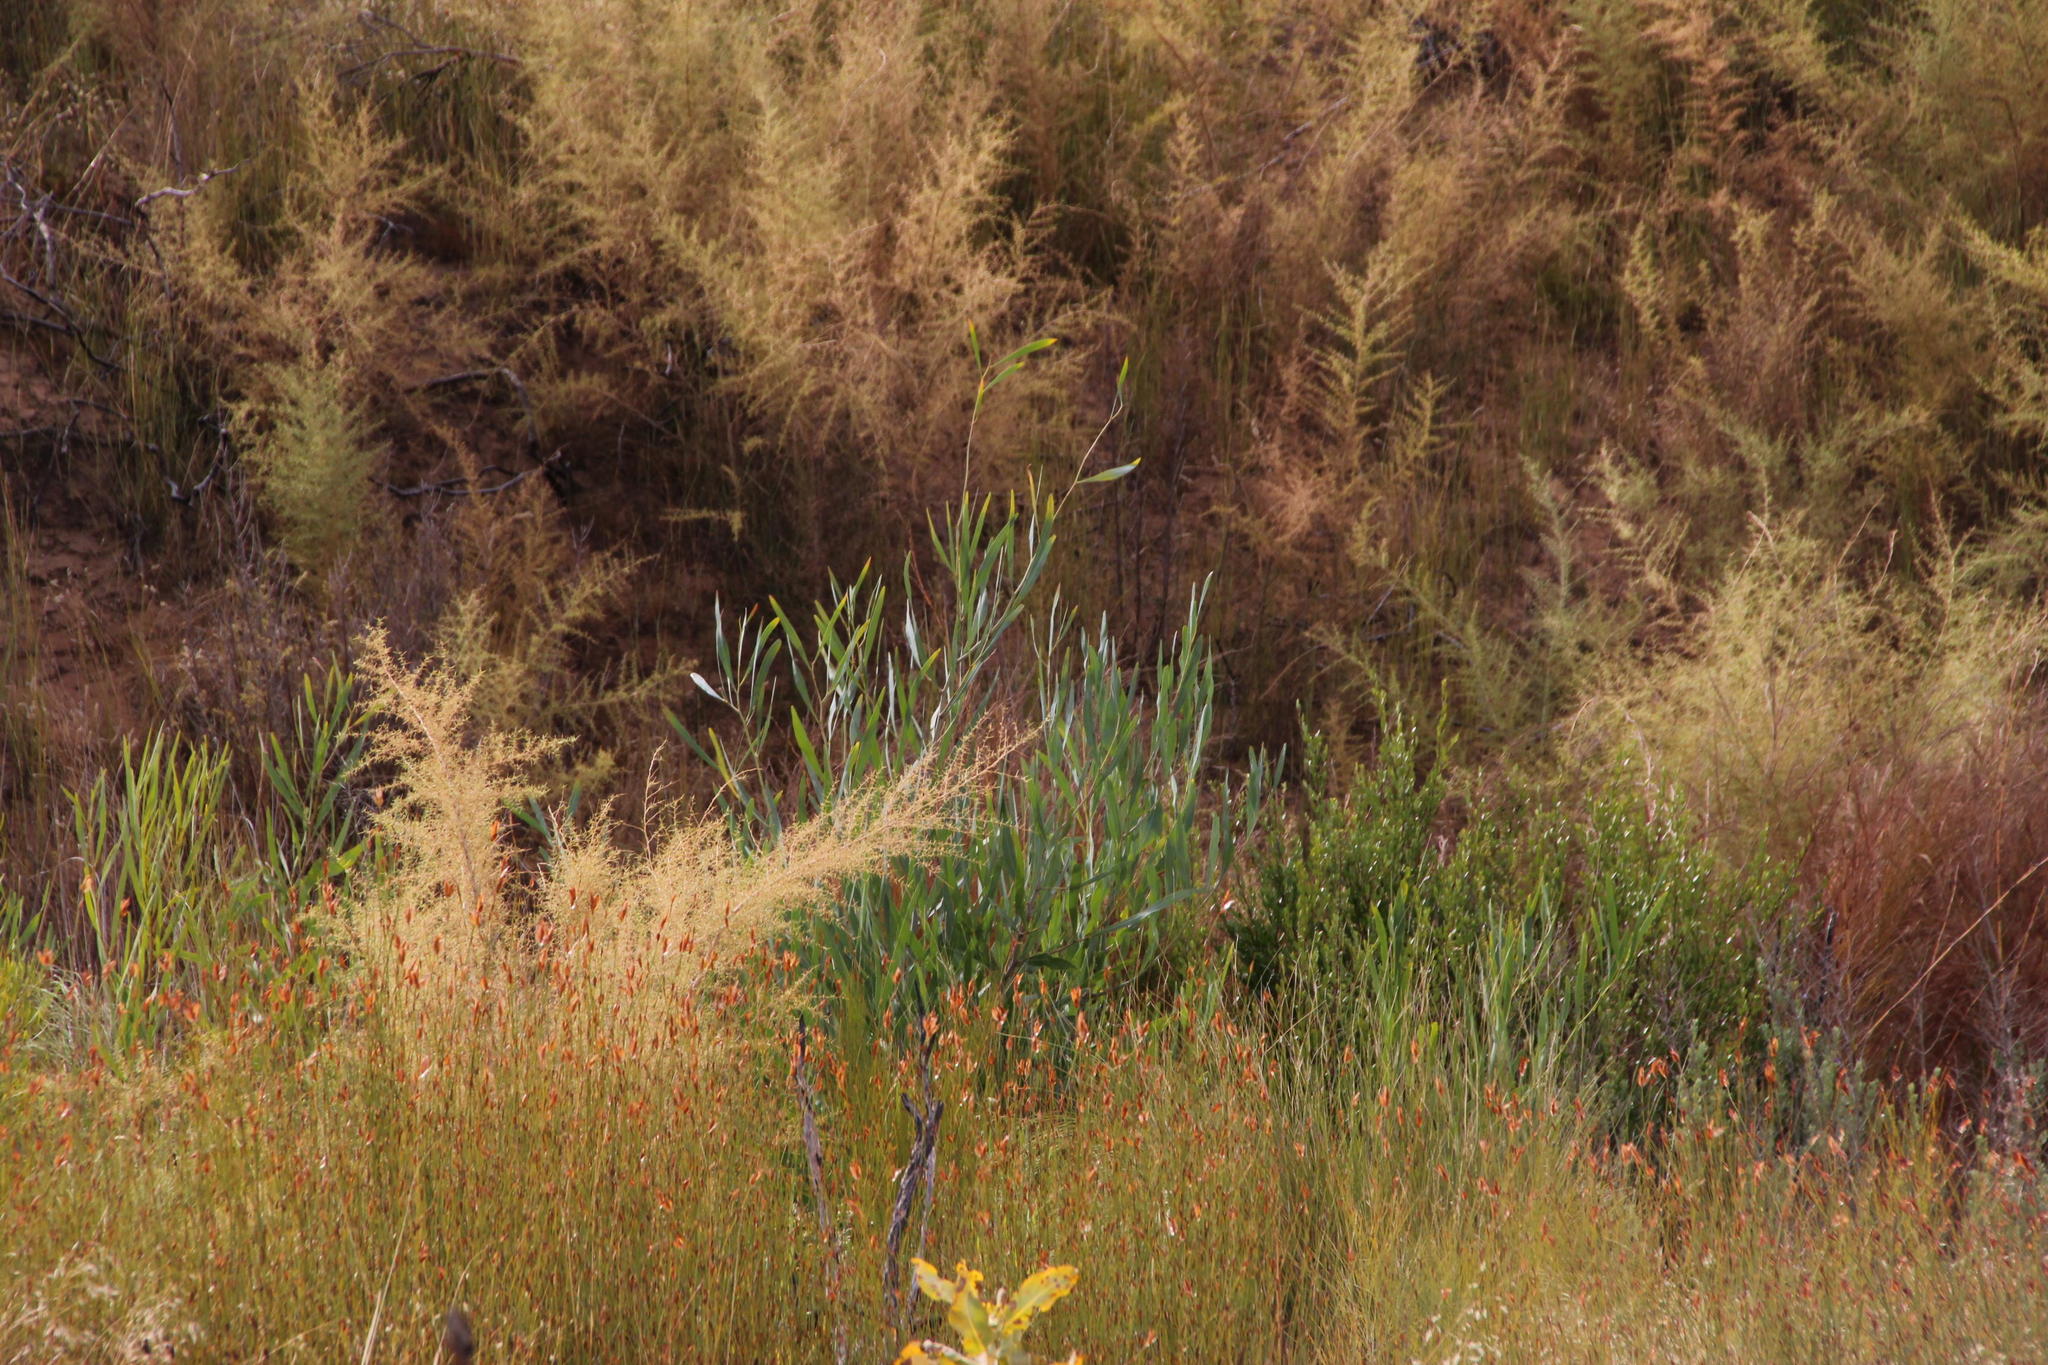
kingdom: Plantae
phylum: Tracheophyta
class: Magnoliopsida
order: Fabales
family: Fabaceae
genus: Acacia
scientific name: Acacia saligna
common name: Orange wattle
